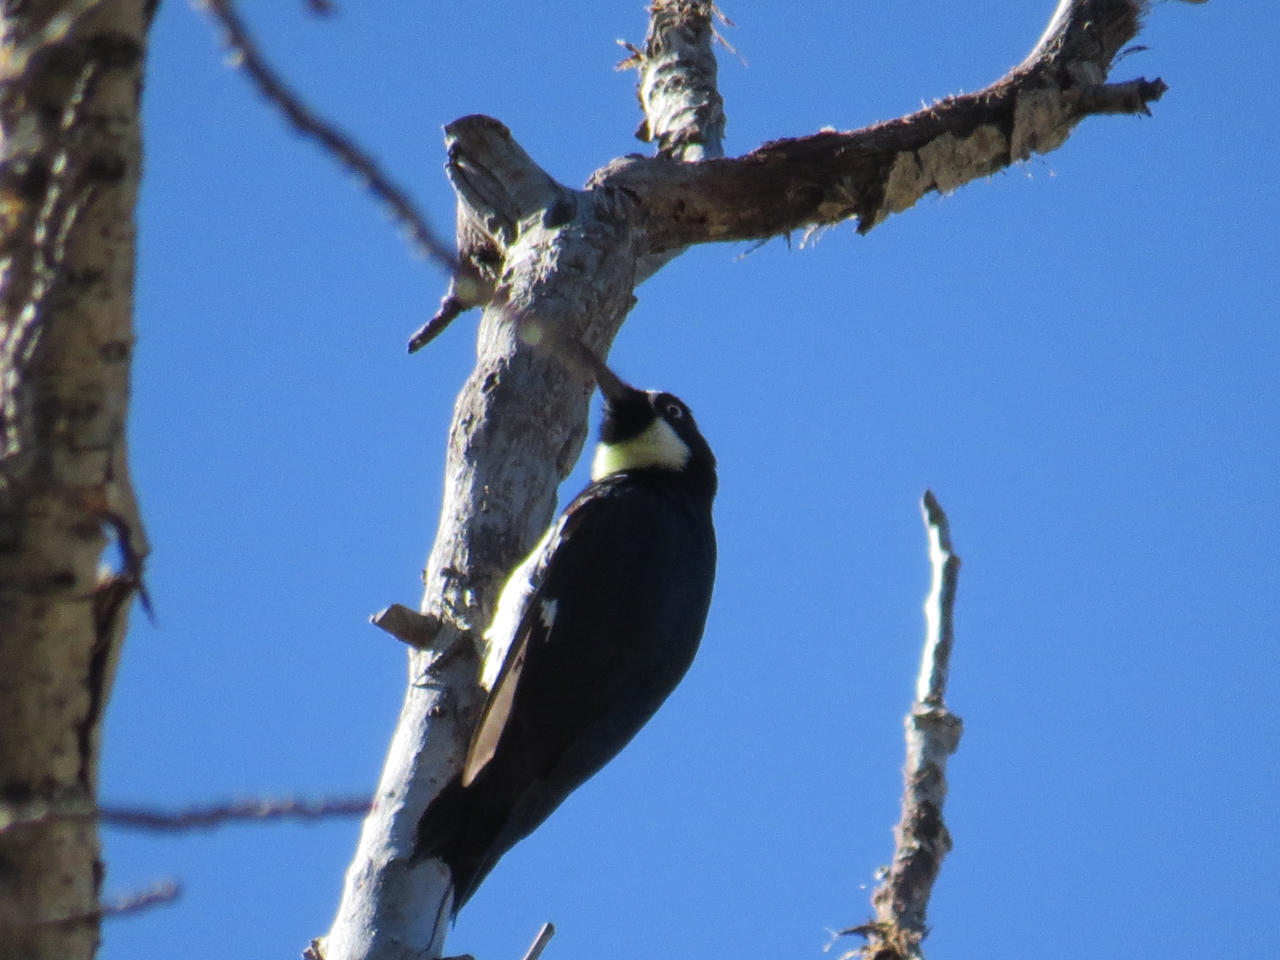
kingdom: Animalia
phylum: Chordata
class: Aves
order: Piciformes
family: Picidae
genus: Melanerpes
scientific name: Melanerpes formicivorus
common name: Acorn woodpecker
